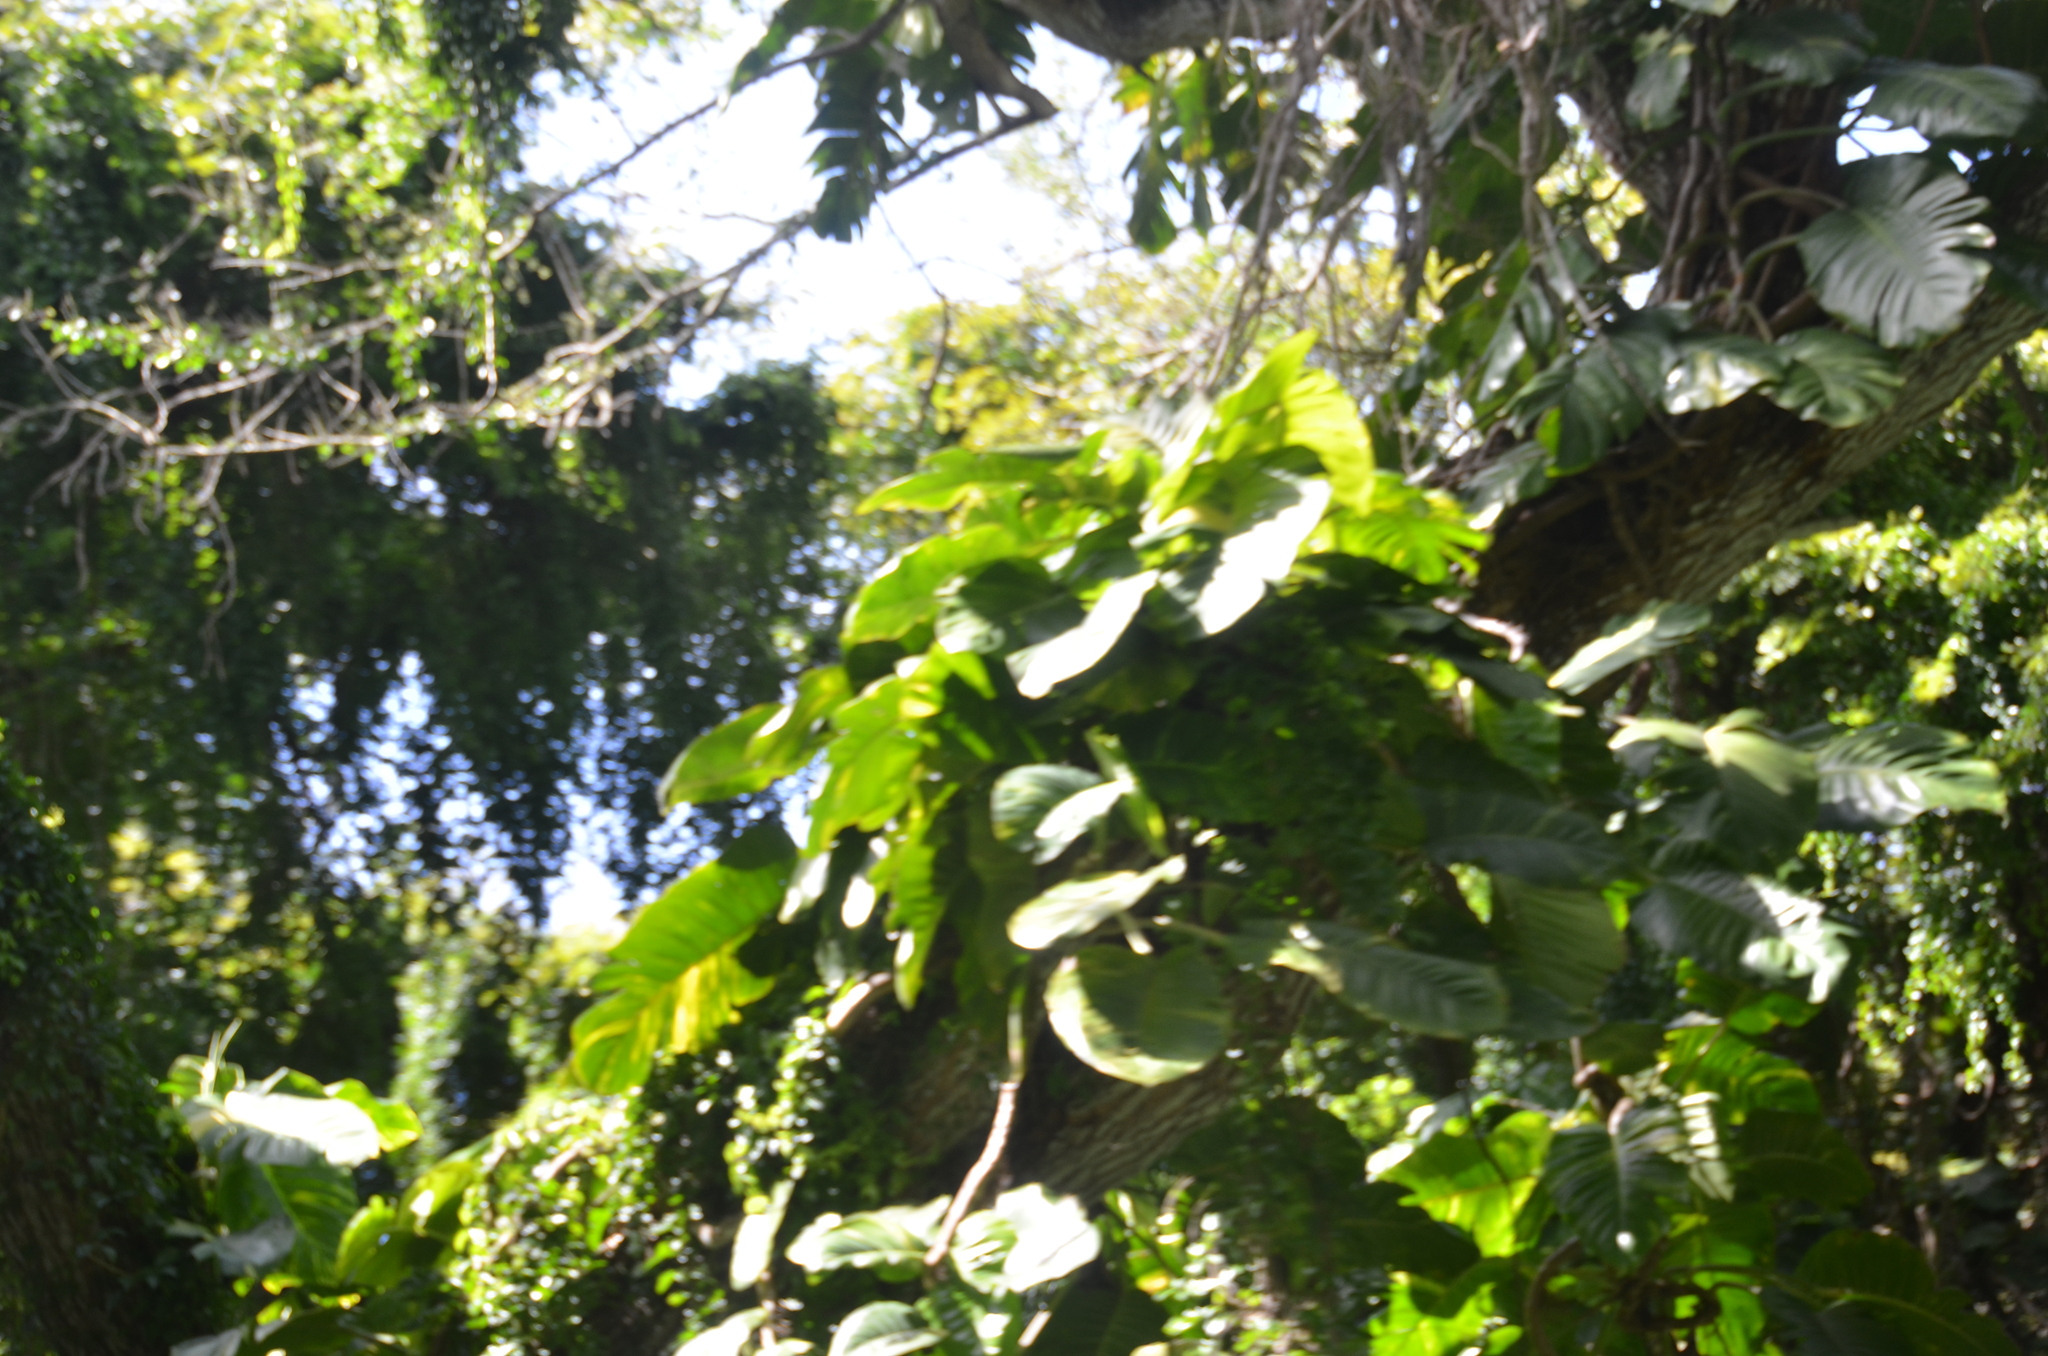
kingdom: Plantae
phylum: Tracheophyta
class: Liliopsida
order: Alismatales
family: Araceae
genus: Epipremnum
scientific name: Epipremnum aureum
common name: Golden hunter's-robe
